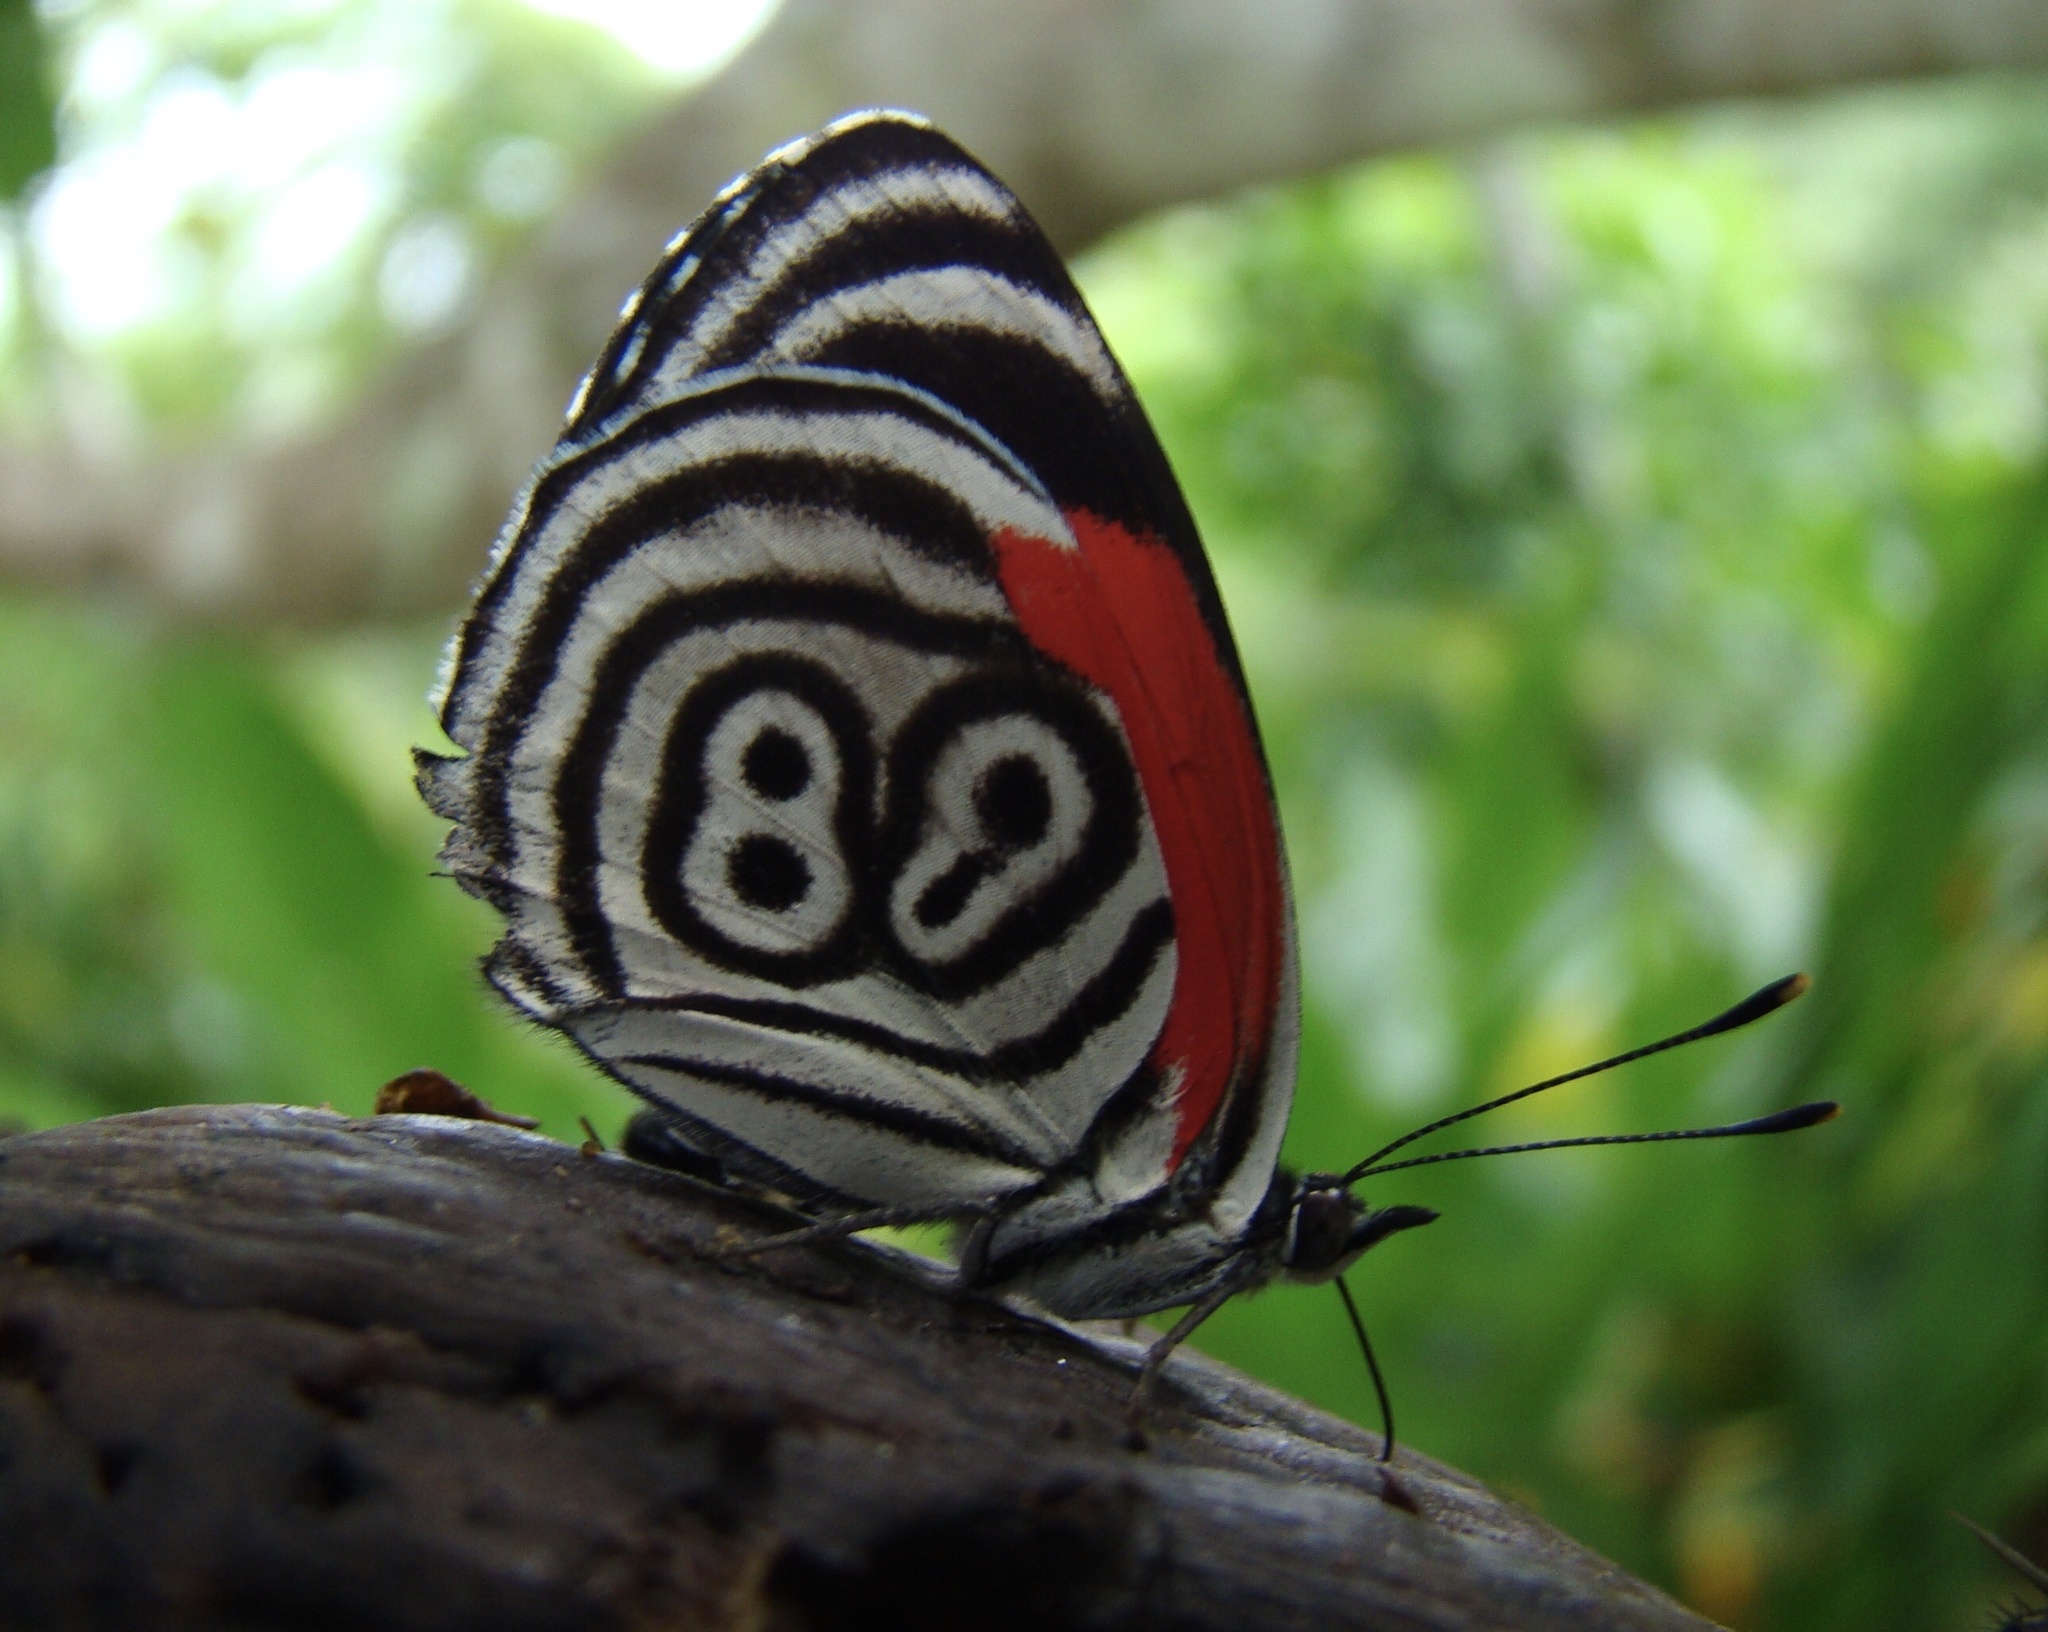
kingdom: Animalia
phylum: Arthropoda
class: Insecta
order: Lepidoptera
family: Nymphalidae
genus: Diaethria
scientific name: Diaethria clymena
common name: Widespread eighty-eight
